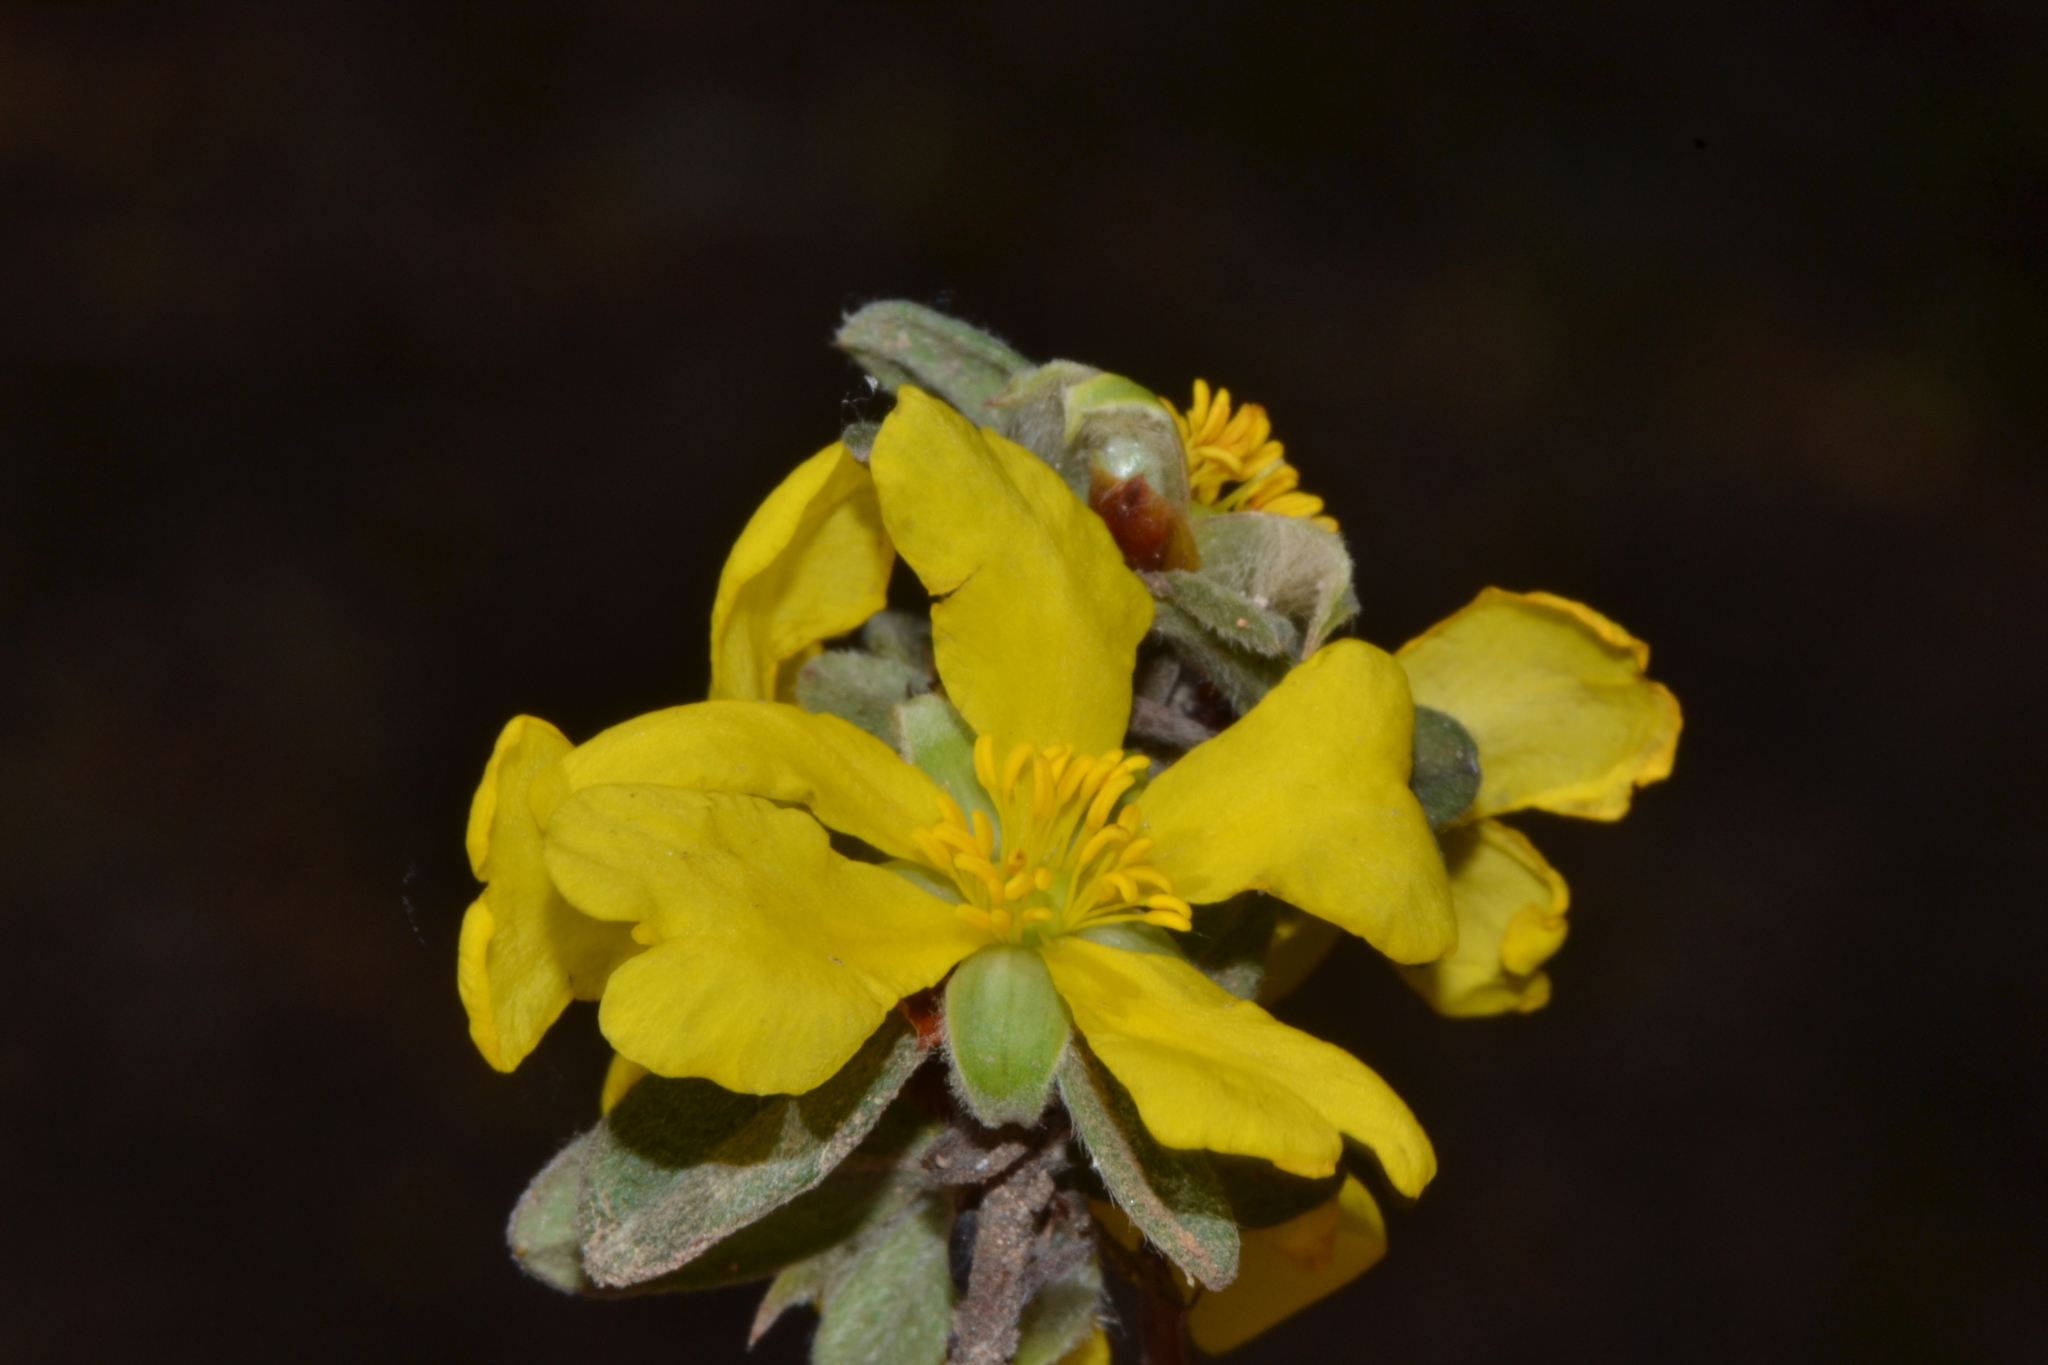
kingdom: Plantae
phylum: Tracheophyta
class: Magnoliopsida
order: Dilleniales
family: Dilleniaceae
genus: Hibbertia
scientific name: Hibbertia commutata
